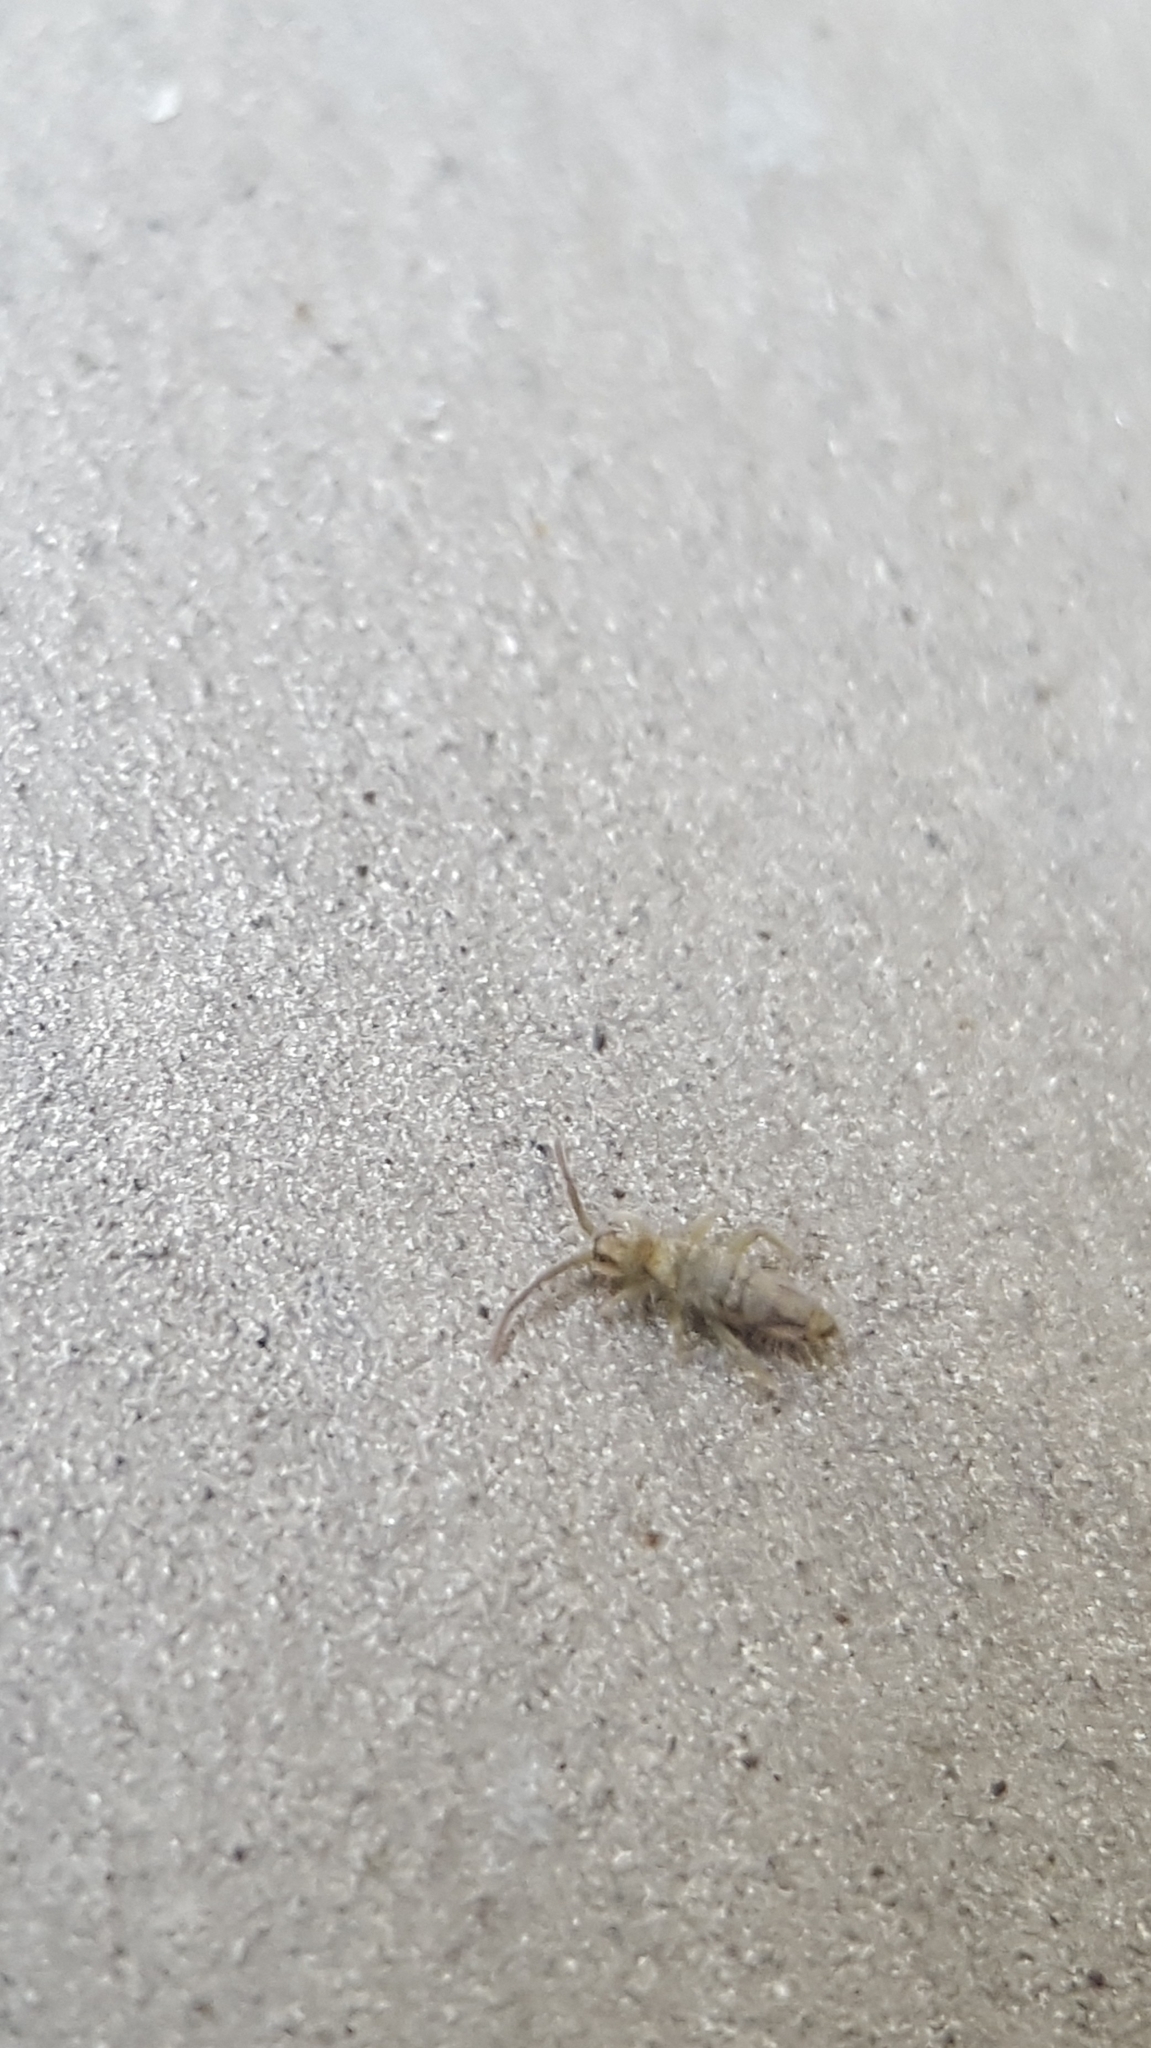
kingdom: Animalia
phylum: Arthropoda
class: Collembola
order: Entomobryomorpha
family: Entomobryidae
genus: Entomobrya
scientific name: Entomobrya nivalis
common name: Cosmopolitan springtail
